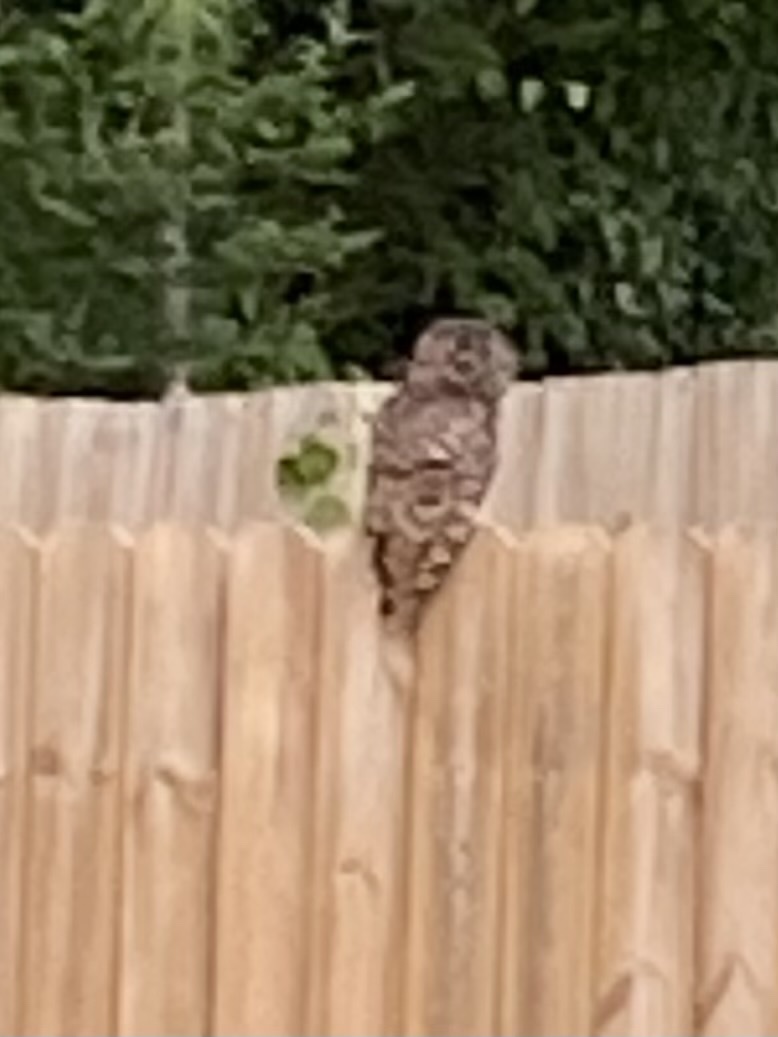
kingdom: Animalia
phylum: Chordata
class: Aves
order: Strigiformes
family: Strigidae
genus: Strix
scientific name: Strix varia
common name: Barred owl
